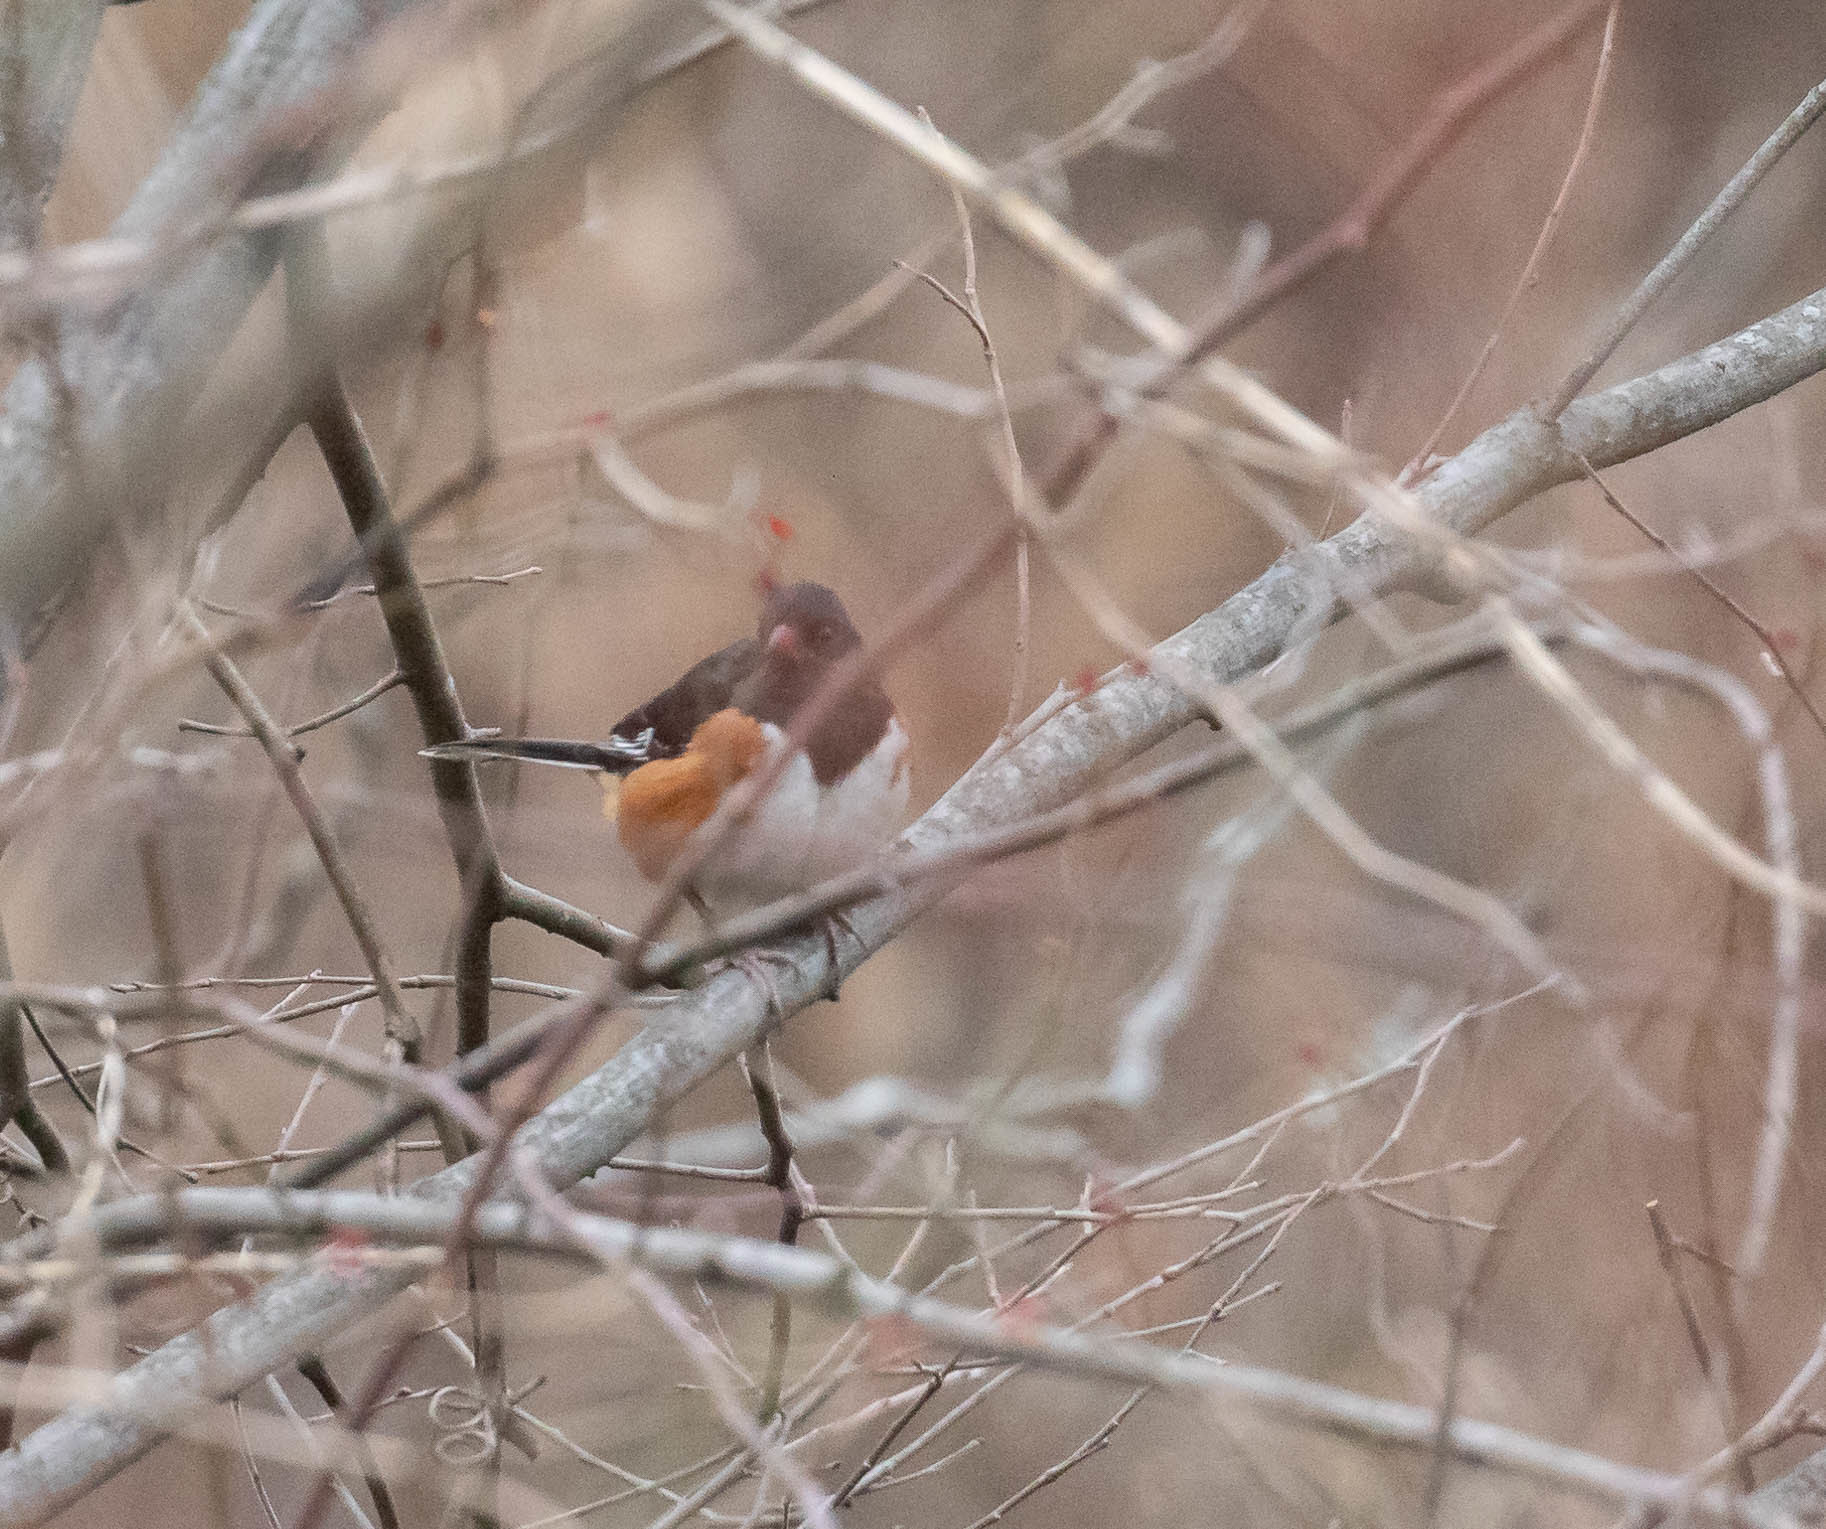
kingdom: Animalia
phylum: Chordata
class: Aves
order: Passeriformes
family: Passerellidae
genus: Pipilo
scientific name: Pipilo erythrophthalmus
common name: Eastern towhee
